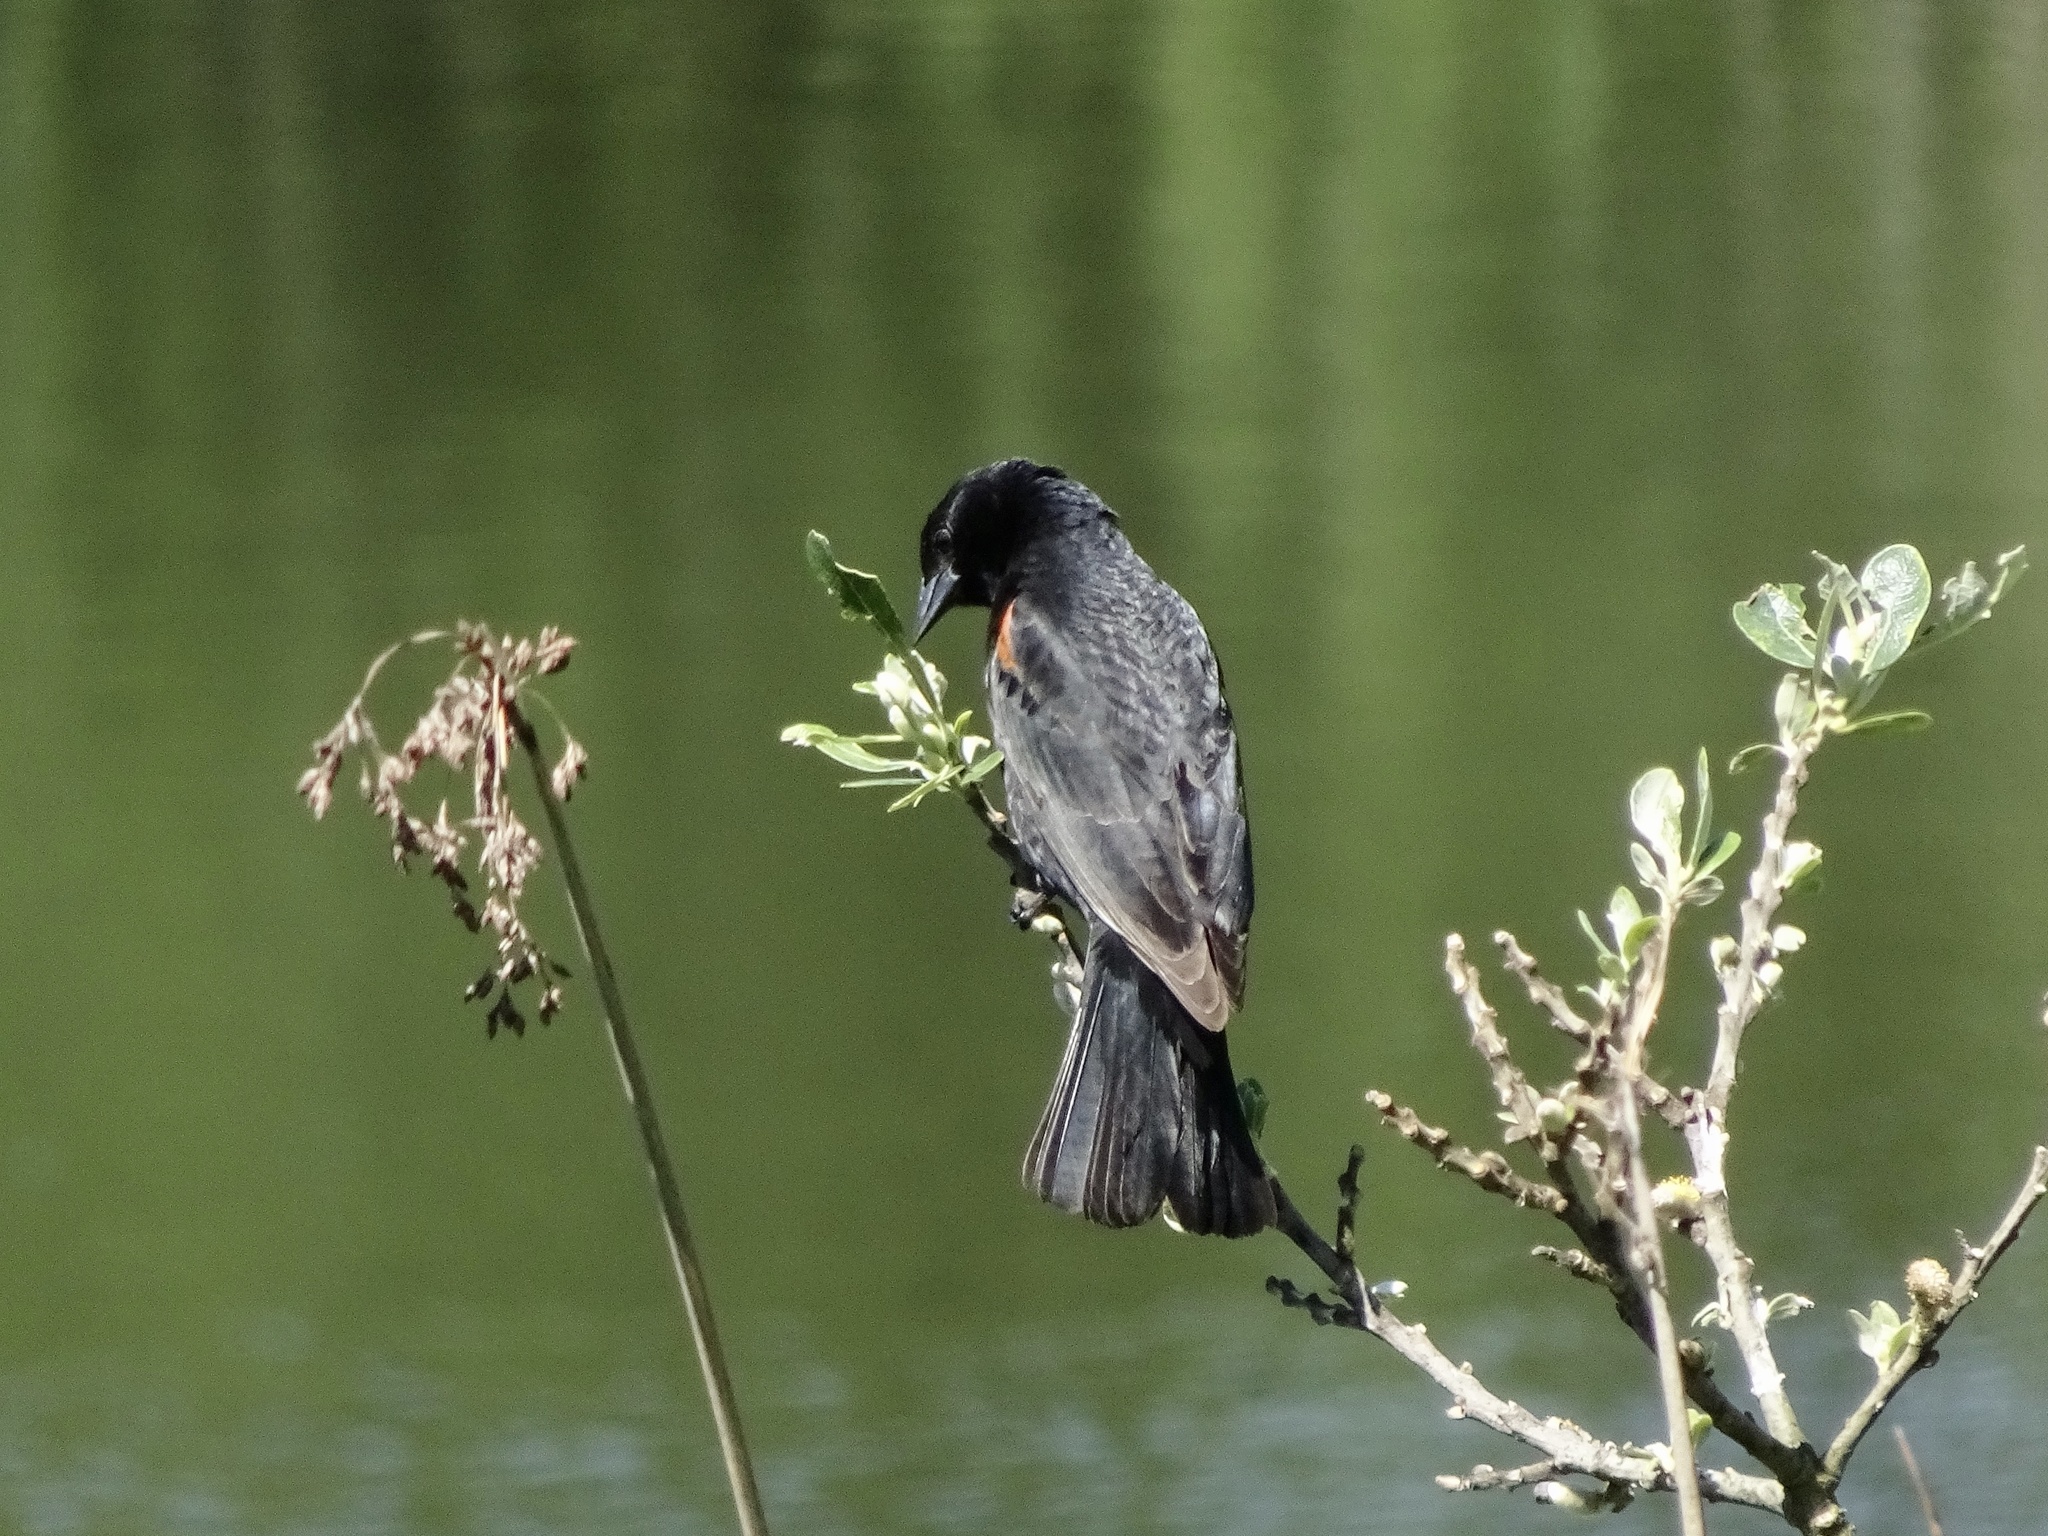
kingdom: Animalia
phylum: Chordata
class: Aves
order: Passeriformes
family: Icteridae
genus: Agelaius
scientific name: Agelaius phoeniceus
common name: Red-winged blackbird
